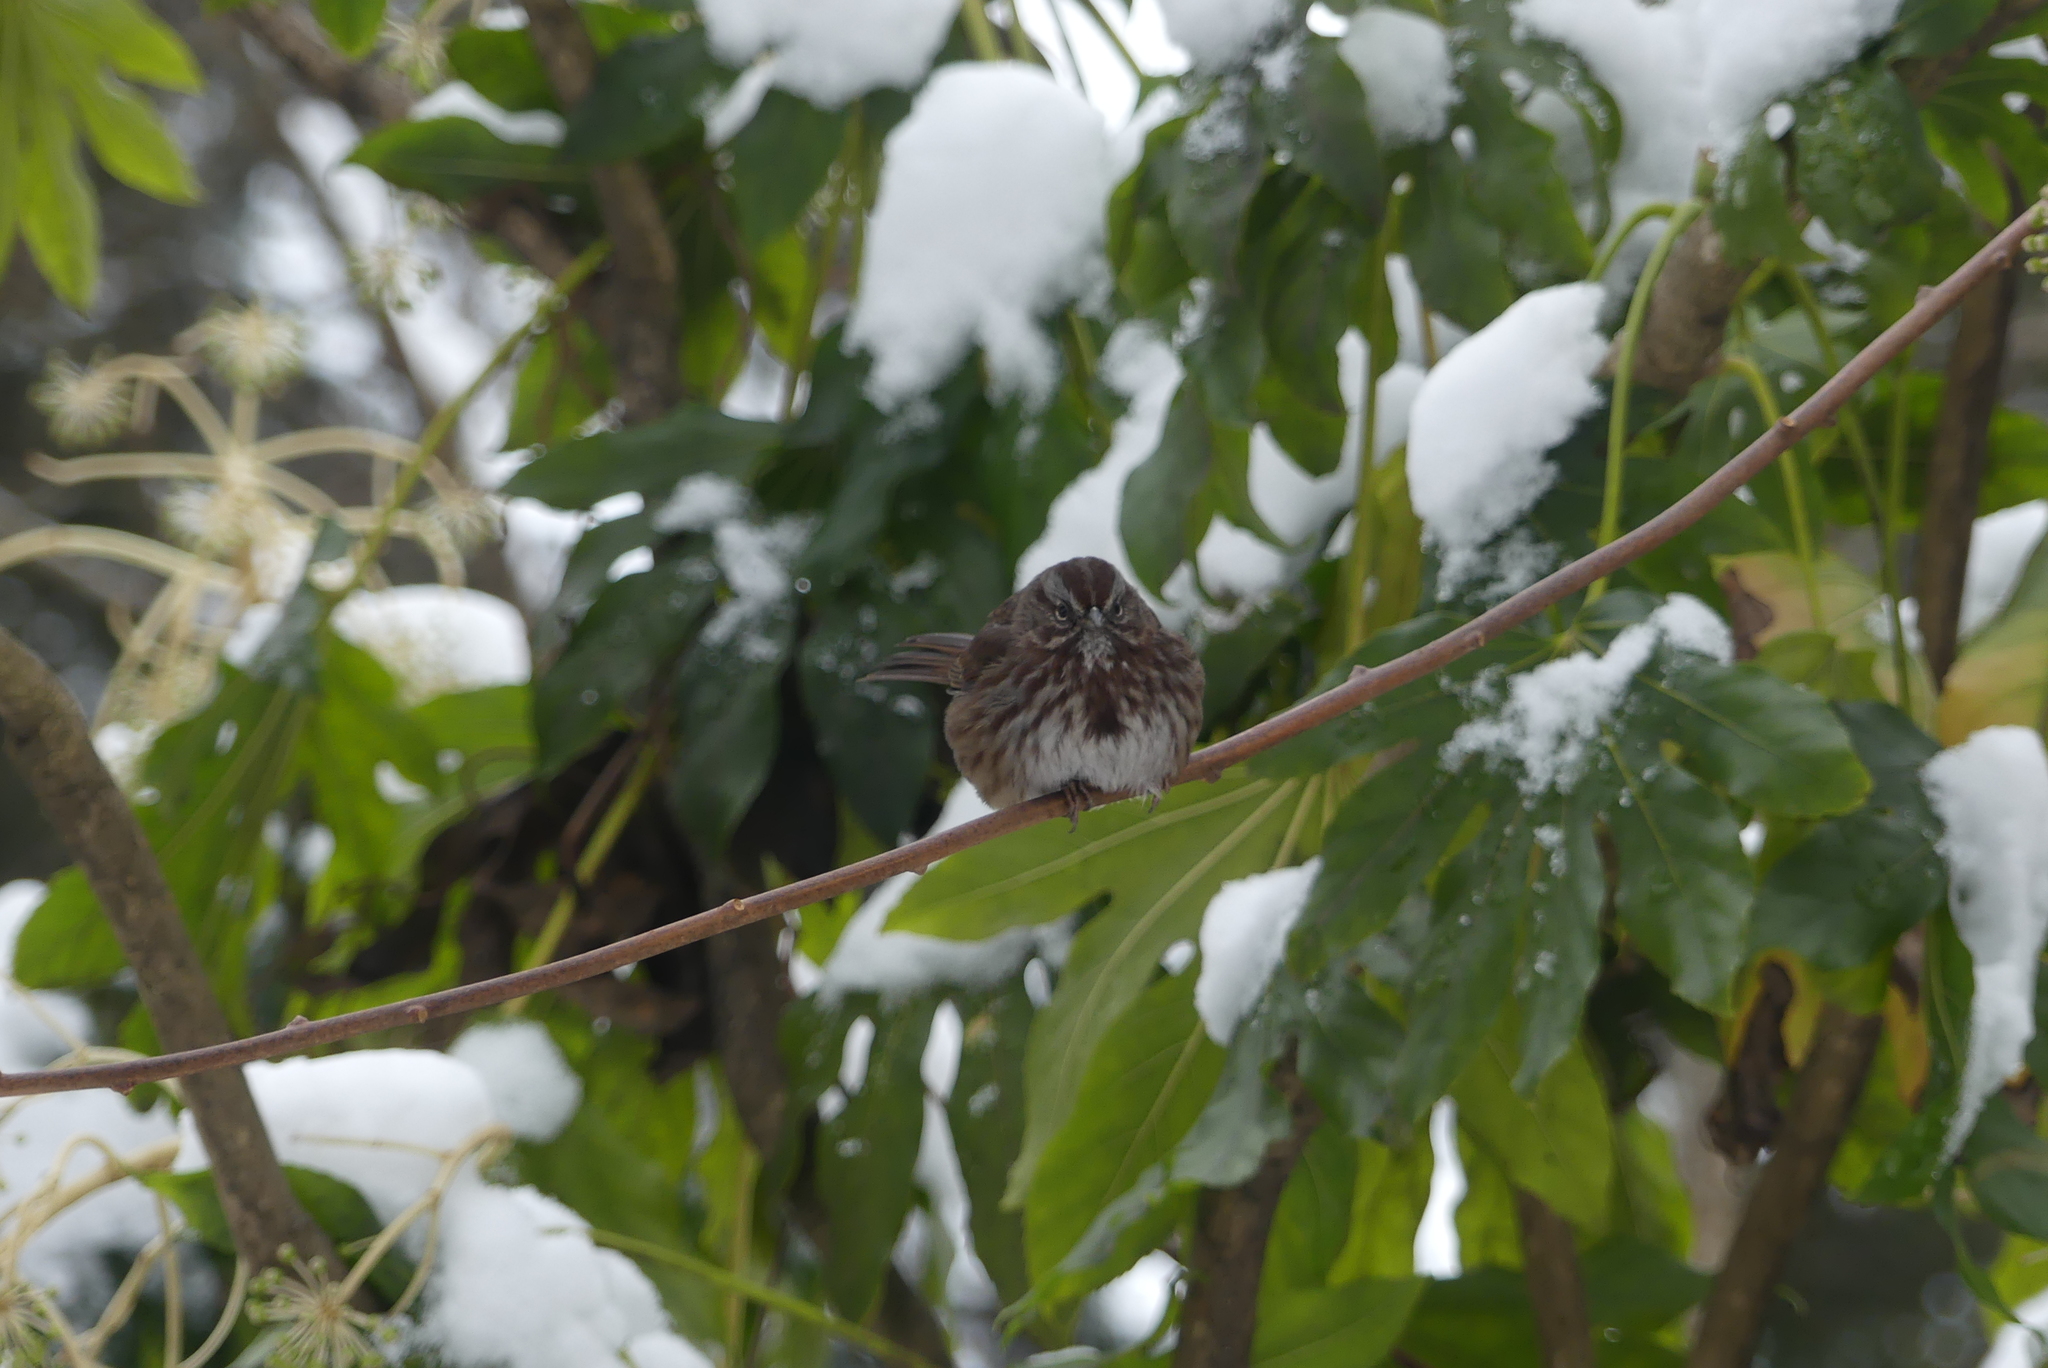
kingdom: Animalia
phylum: Chordata
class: Aves
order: Passeriformes
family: Passerellidae
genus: Melospiza
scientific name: Melospiza melodia
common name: Song sparrow
